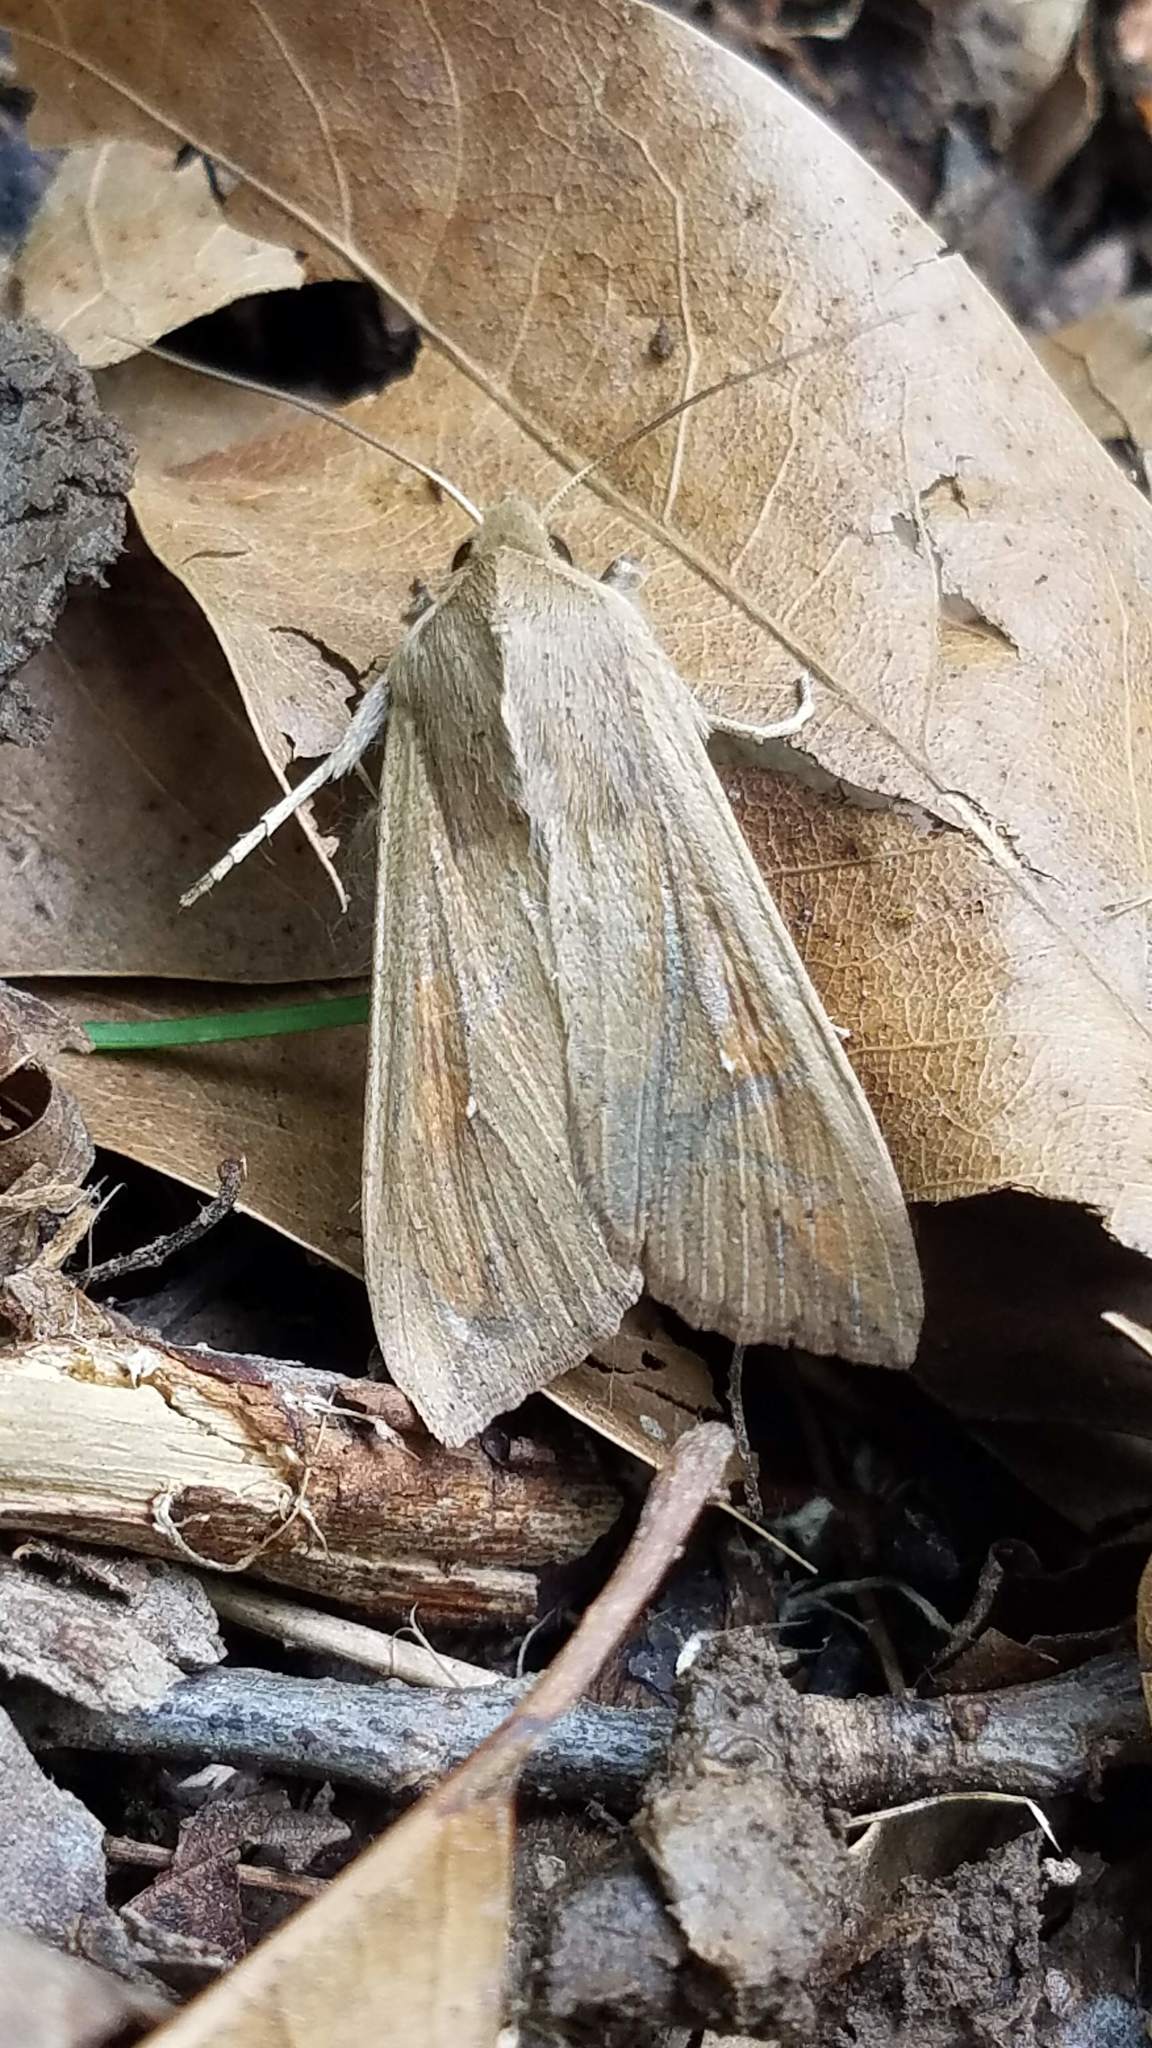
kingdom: Animalia
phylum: Arthropoda
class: Insecta
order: Lepidoptera
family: Noctuidae
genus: Mythimna
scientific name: Mythimna unipuncta
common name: White-speck
